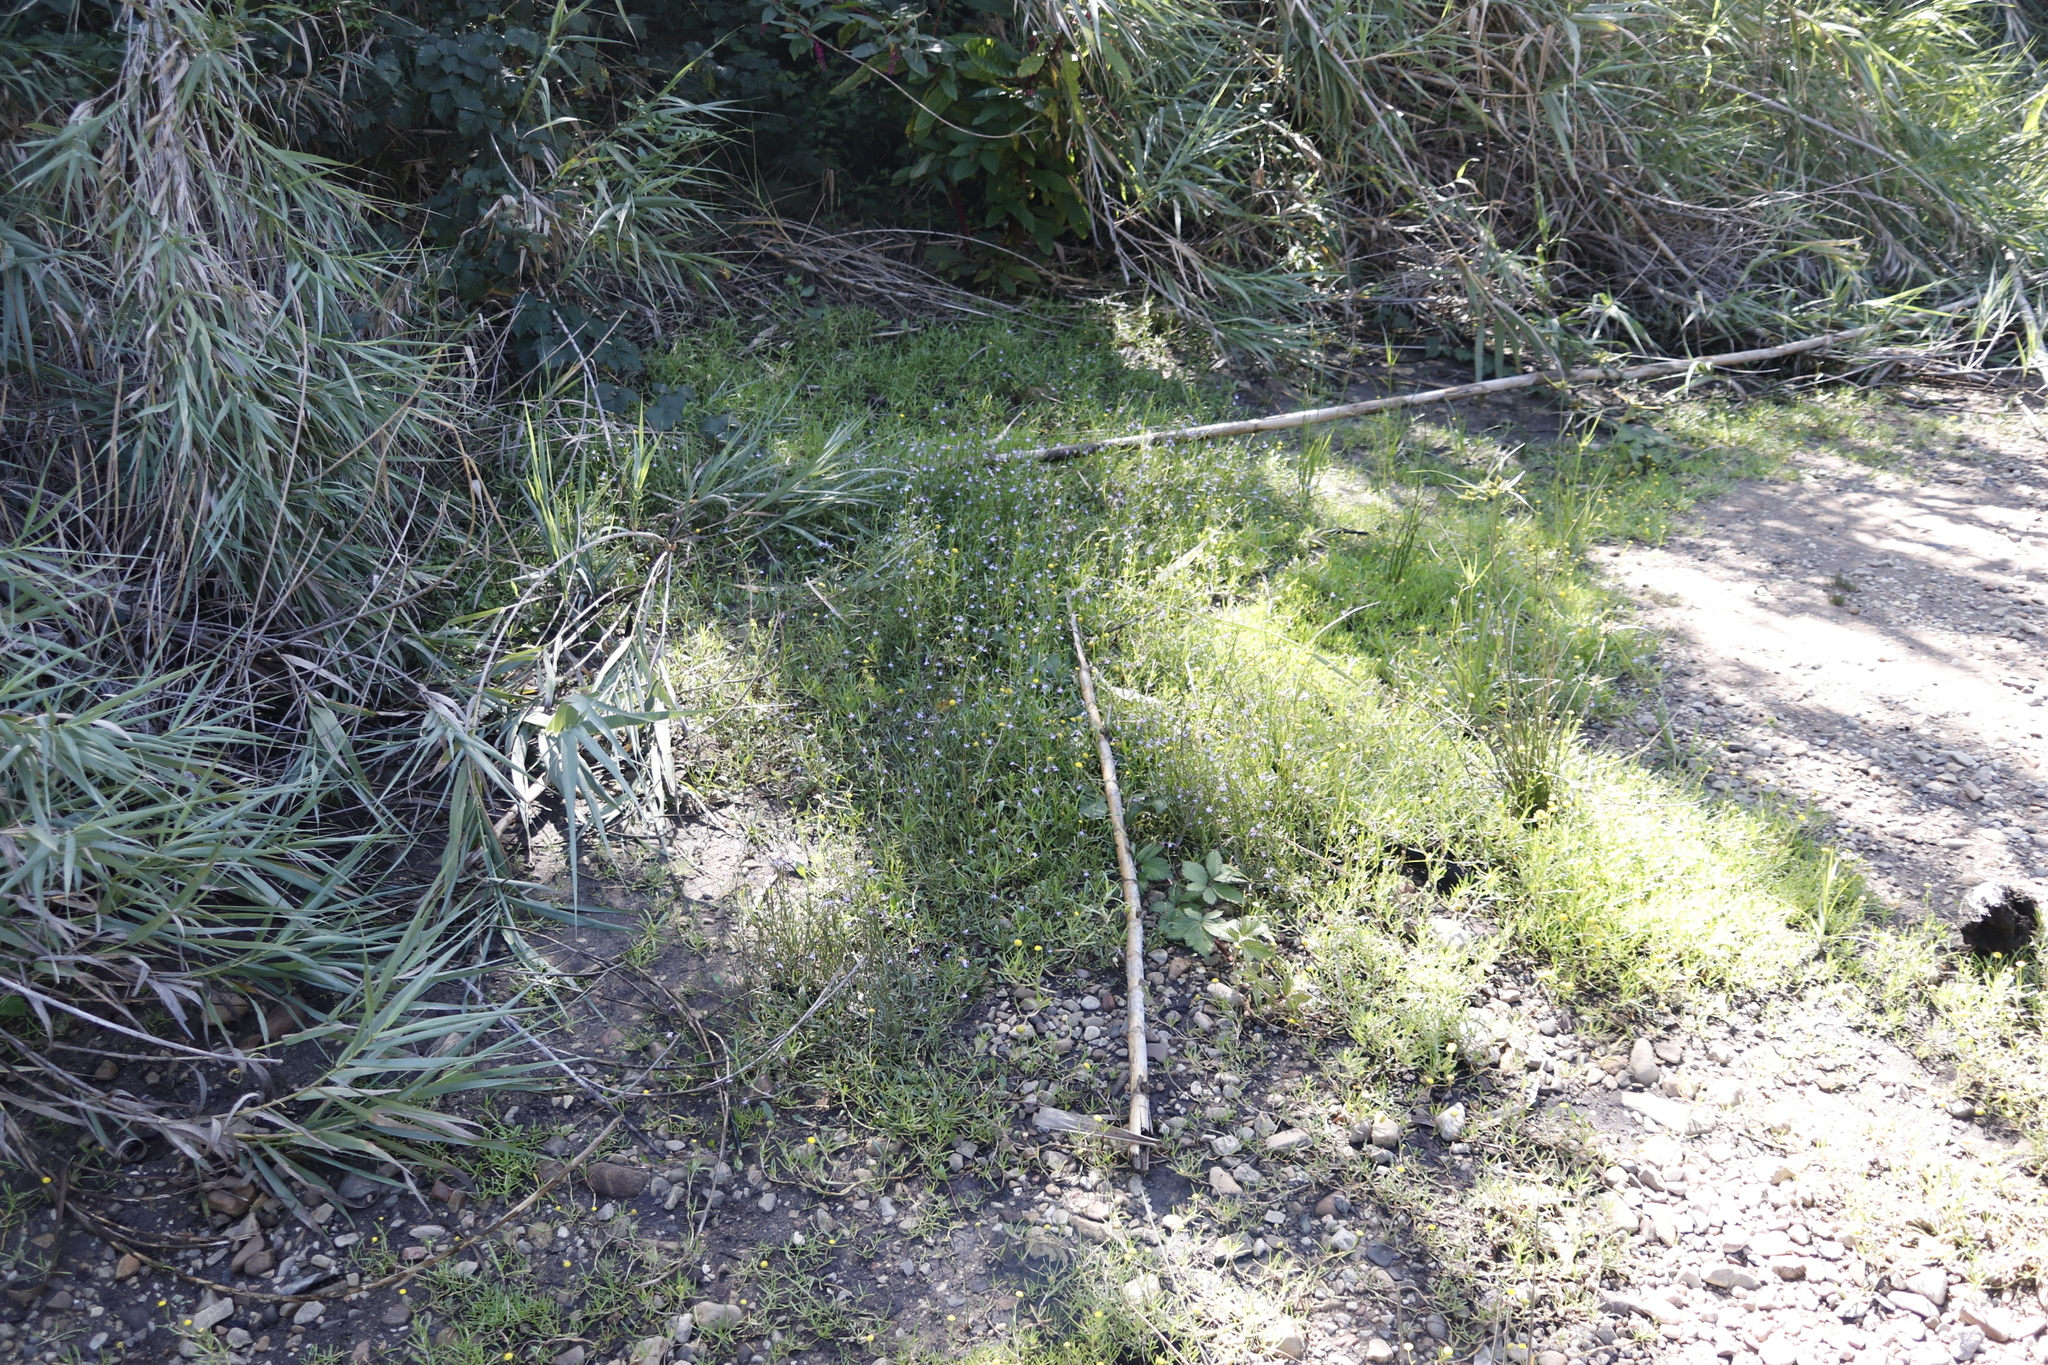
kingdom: Plantae
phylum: Tracheophyta
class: Magnoliopsida
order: Asterales
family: Campanulaceae
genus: Lobelia
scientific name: Lobelia anceps
